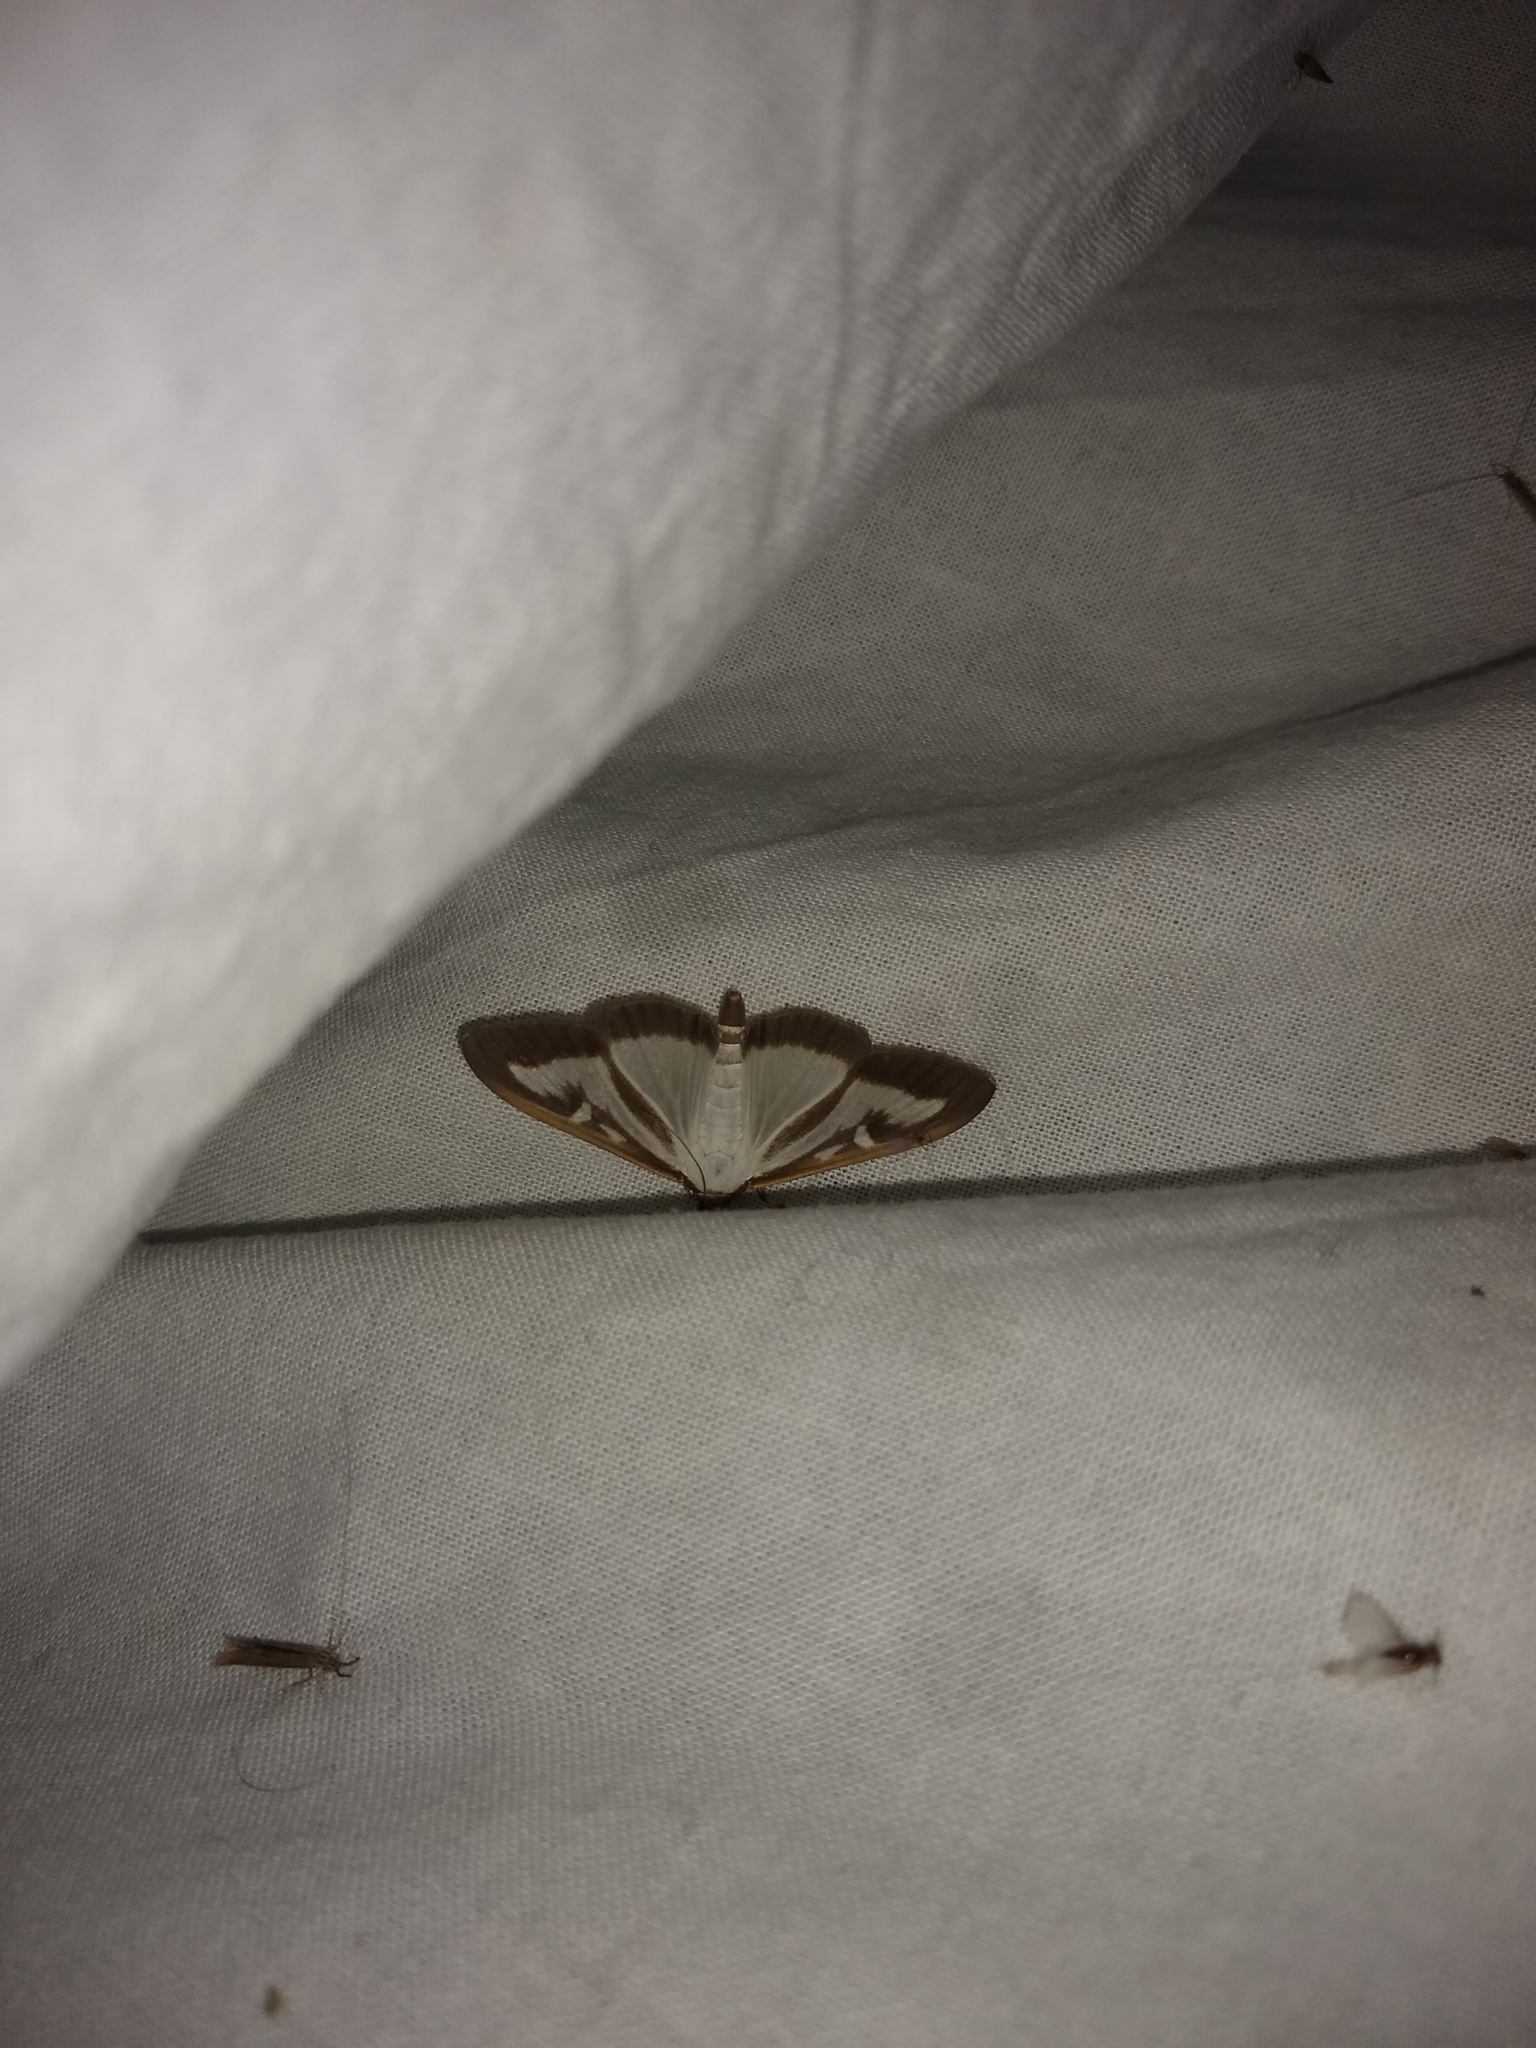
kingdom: Animalia
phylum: Arthropoda
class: Insecta
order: Lepidoptera
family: Crambidae
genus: Cydalima
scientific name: Cydalima perspectalis
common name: Box tree moth
